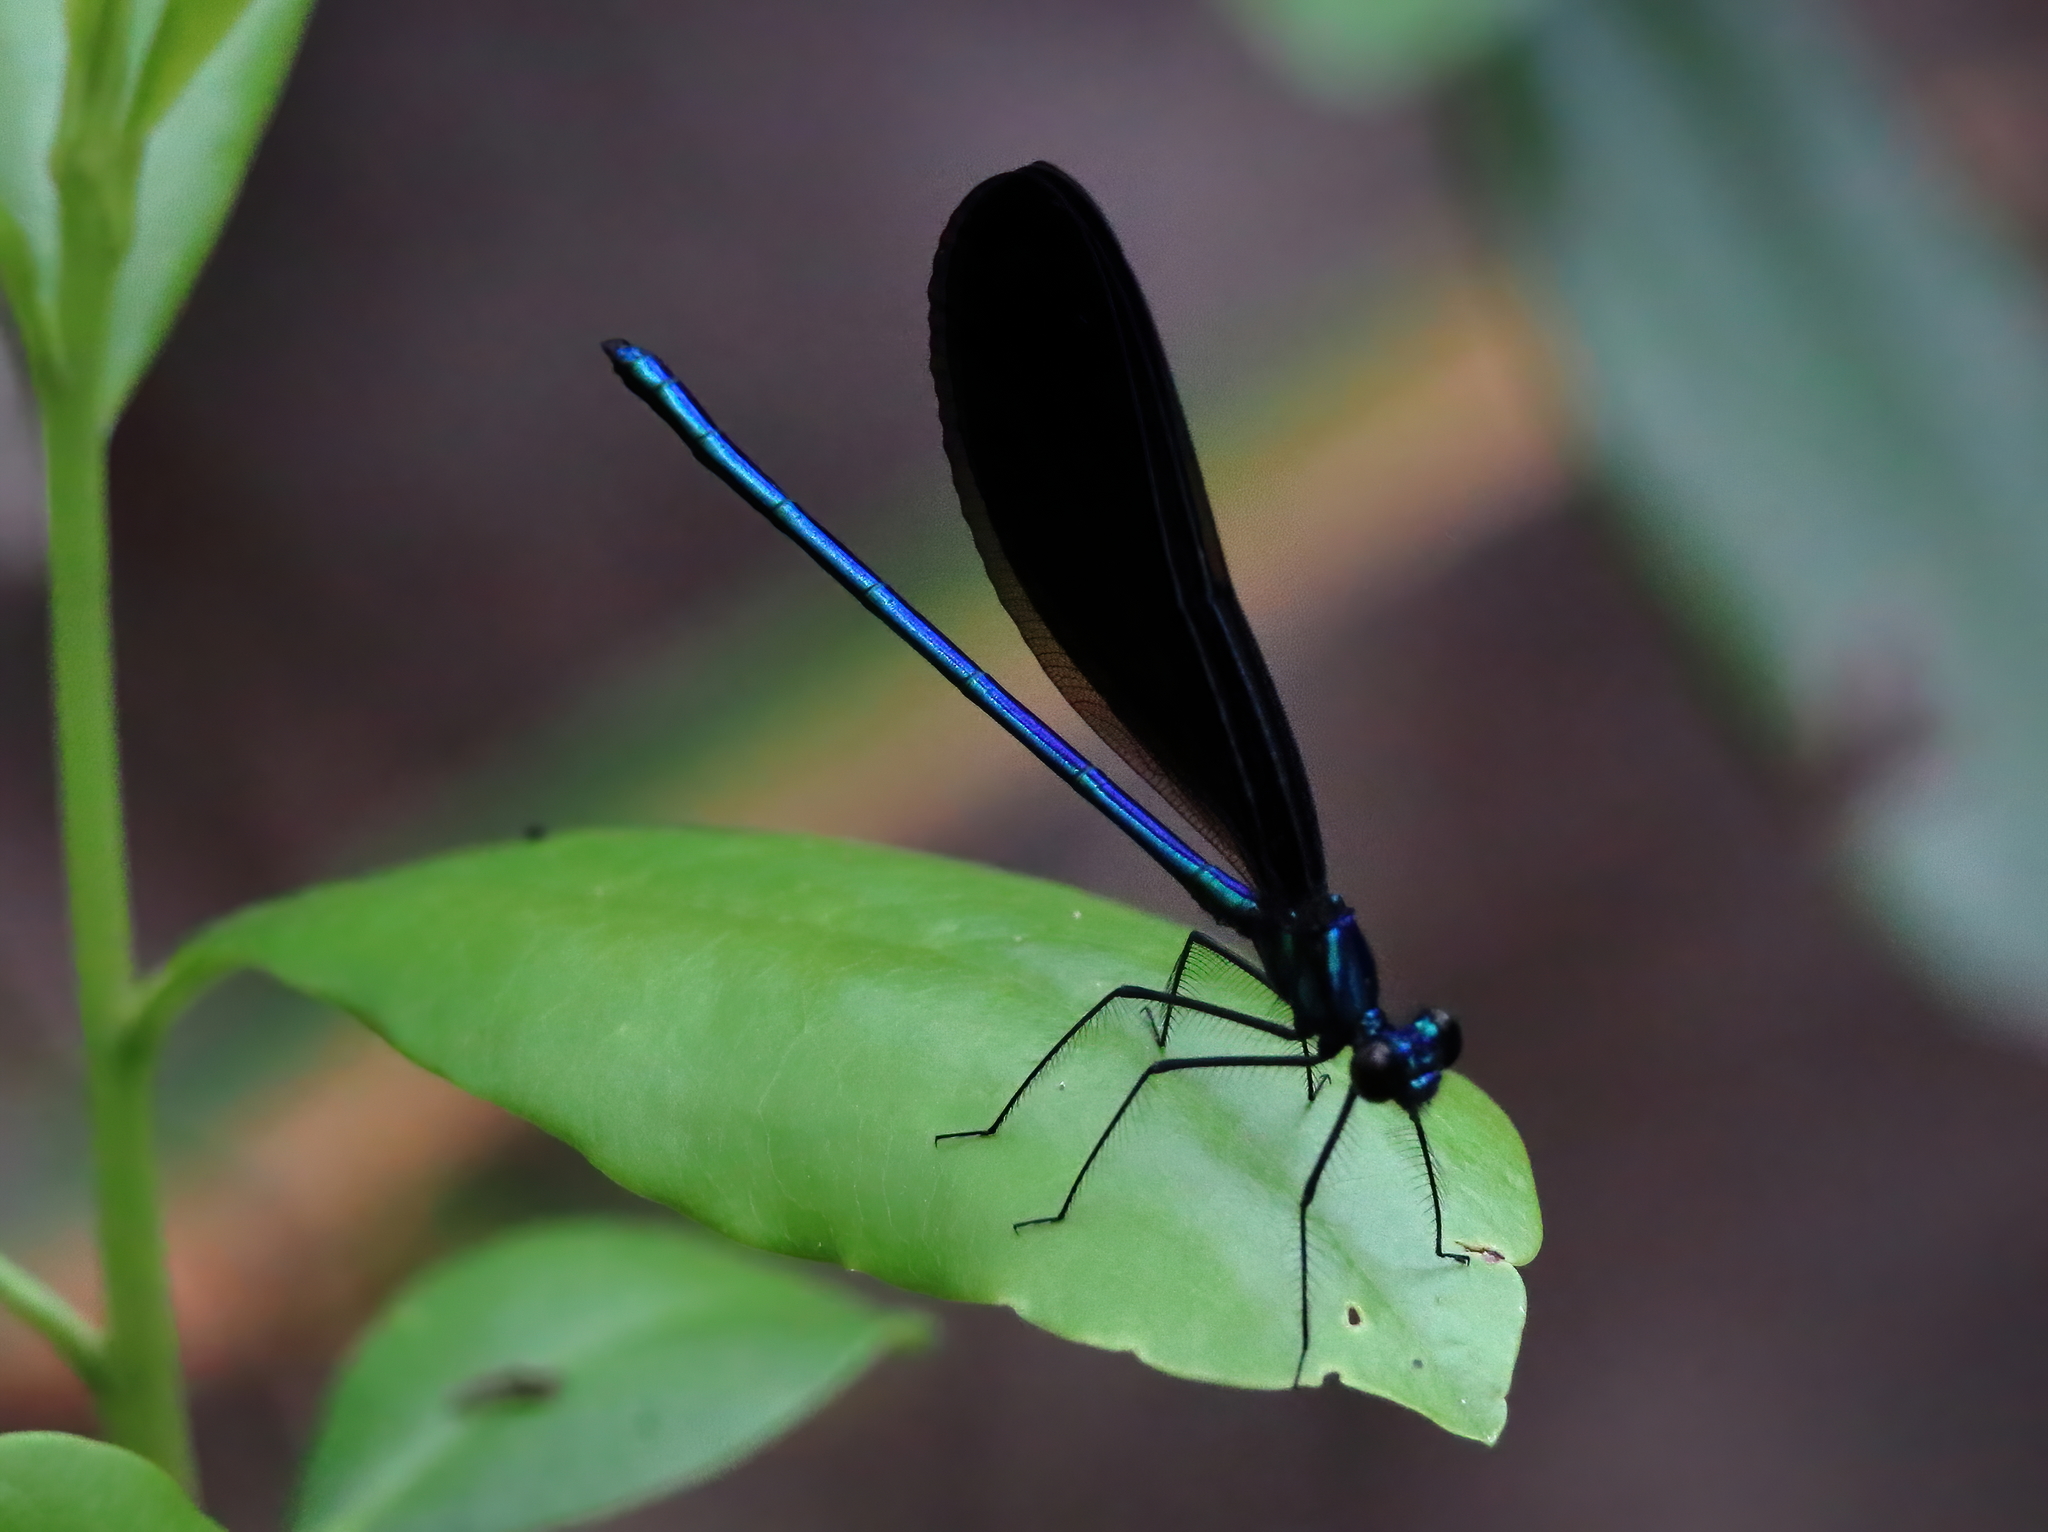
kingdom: Animalia
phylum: Arthropoda
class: Insecta
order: Odonata
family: Calopterygidae
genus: Calopteryx
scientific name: Calopteryx maculata
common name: Ebony jewelwing
